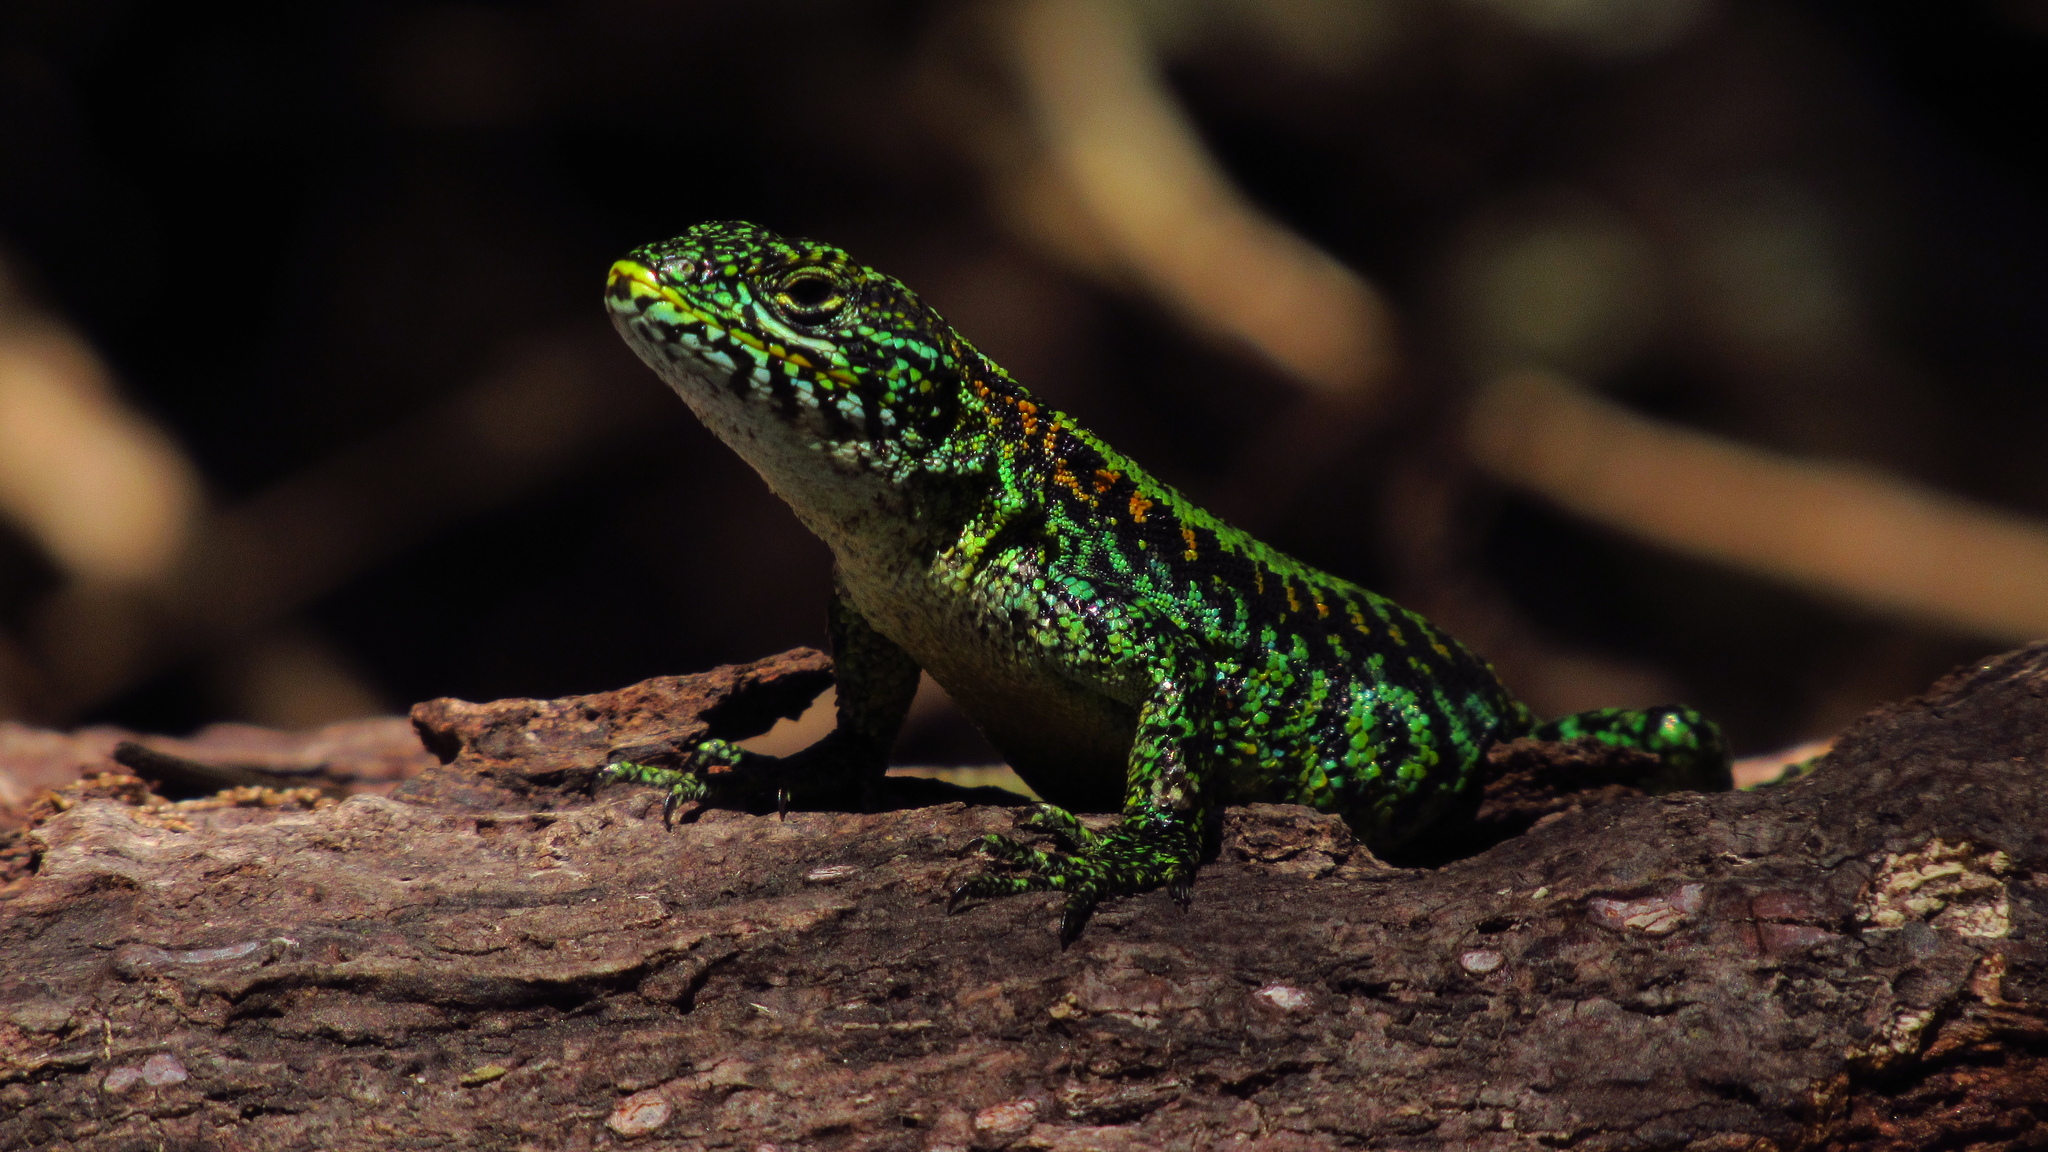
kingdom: Animalia
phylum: Chordata
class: Squamata
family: Liolaemidae
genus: Liolaemus
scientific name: Liolaemus pictus
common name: Painted tree iguana
